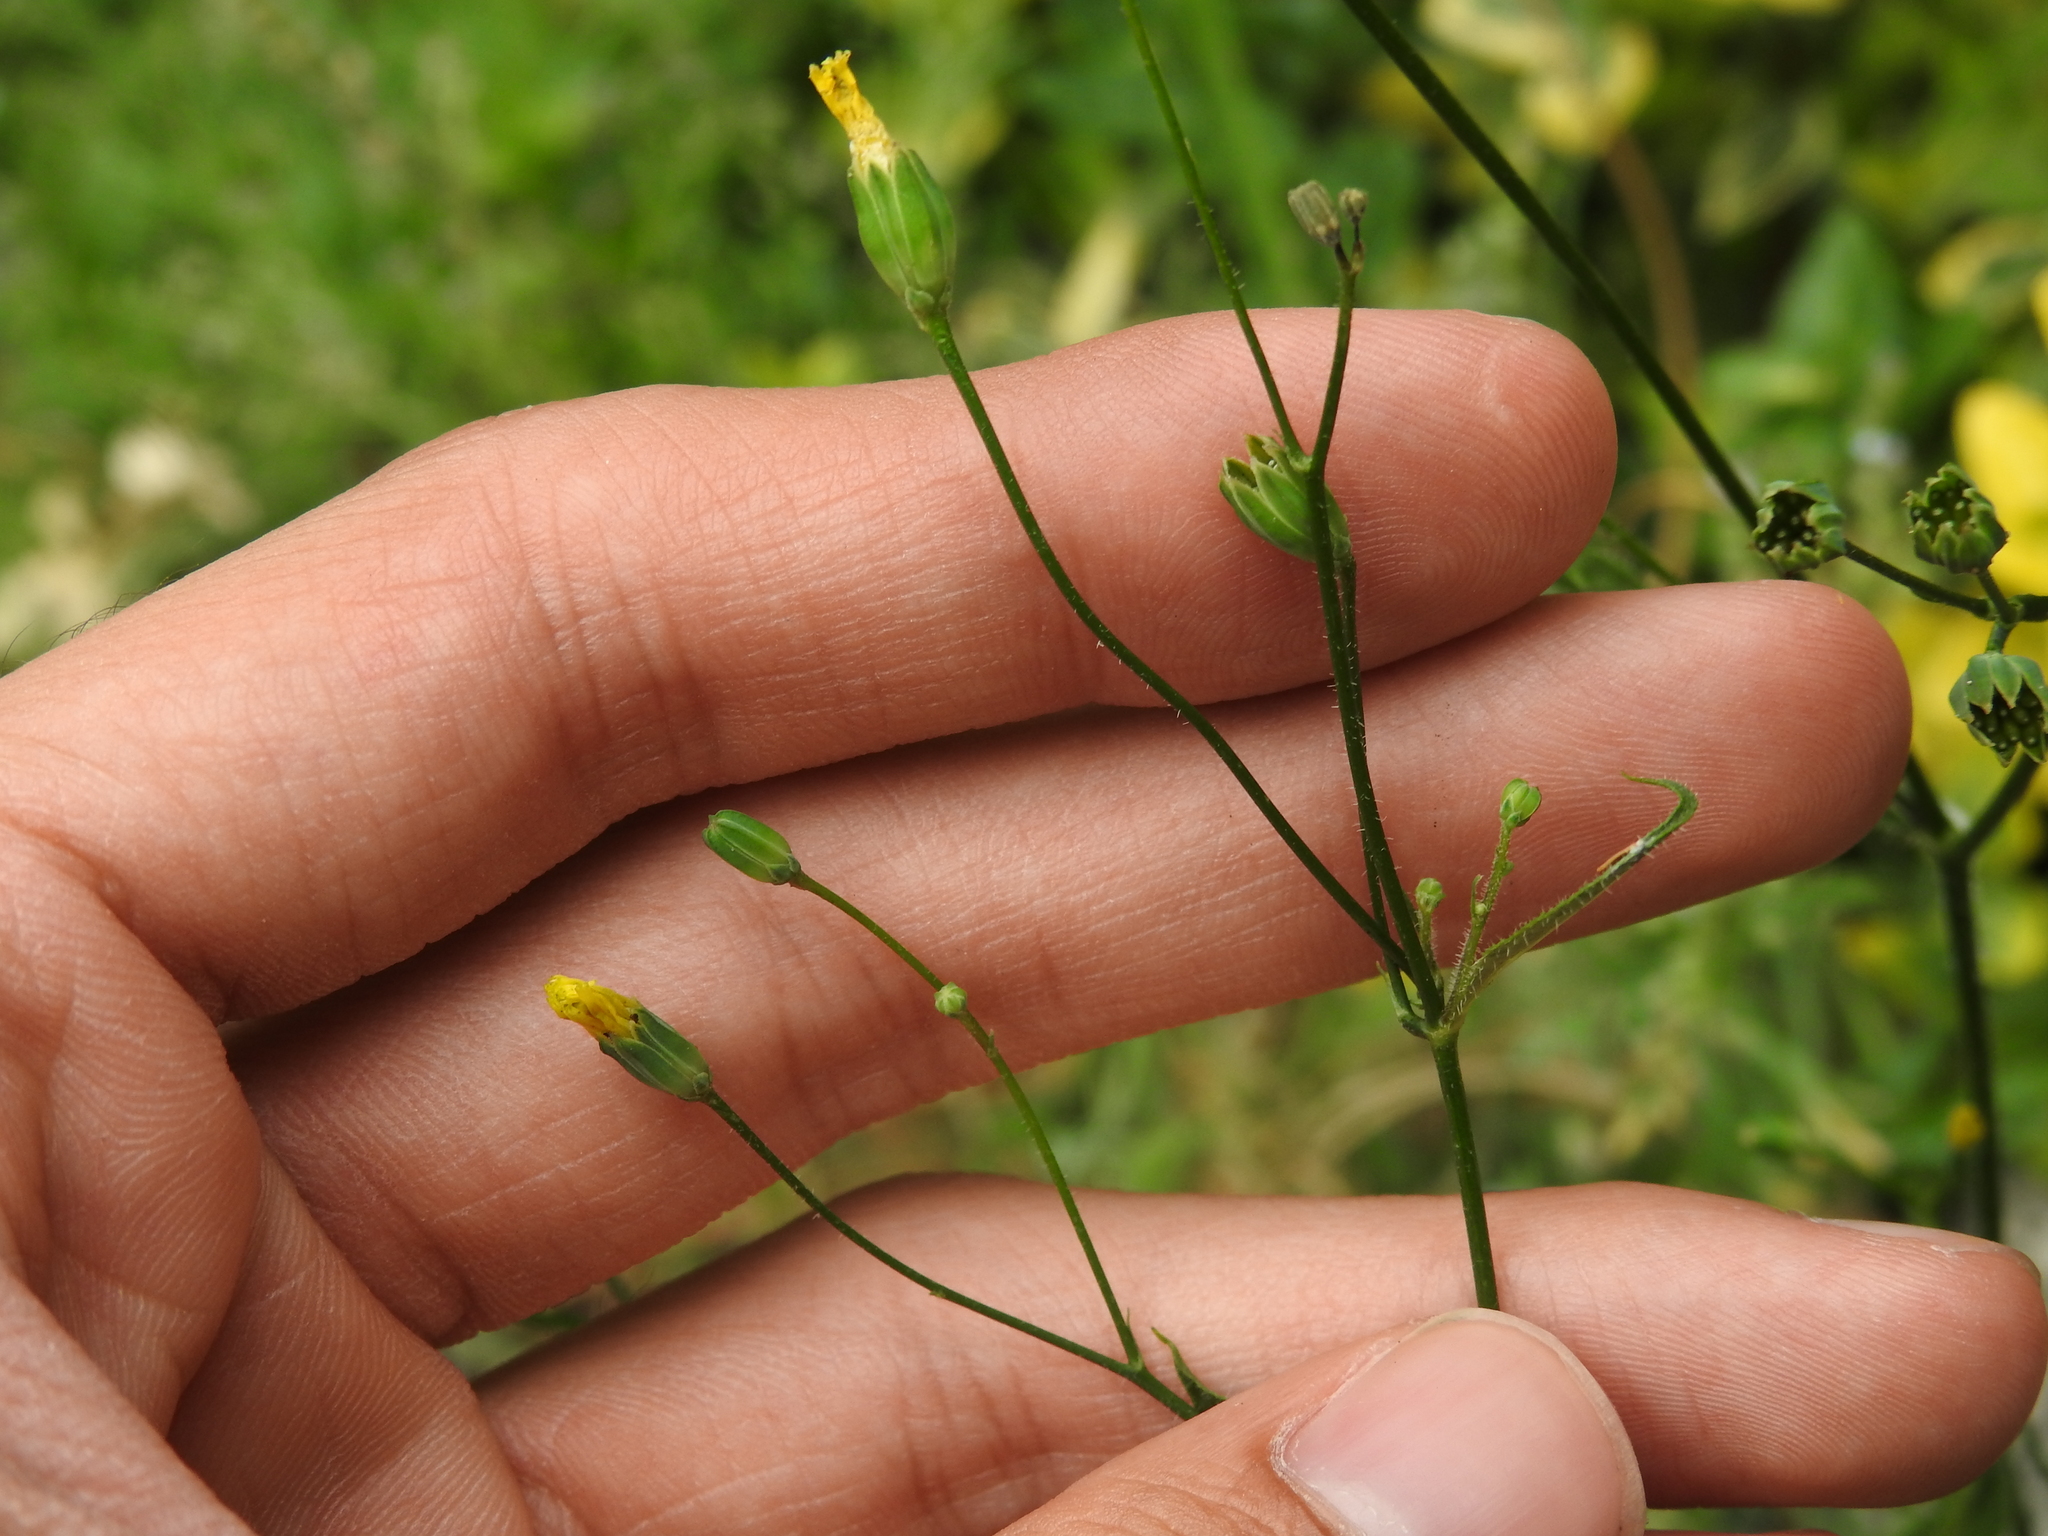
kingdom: Plantae
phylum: Tracheophyta
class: Magnoliopsida
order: Asterales
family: Asteraceae
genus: Lapsana
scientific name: Lapsana communis
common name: Nipplewort
